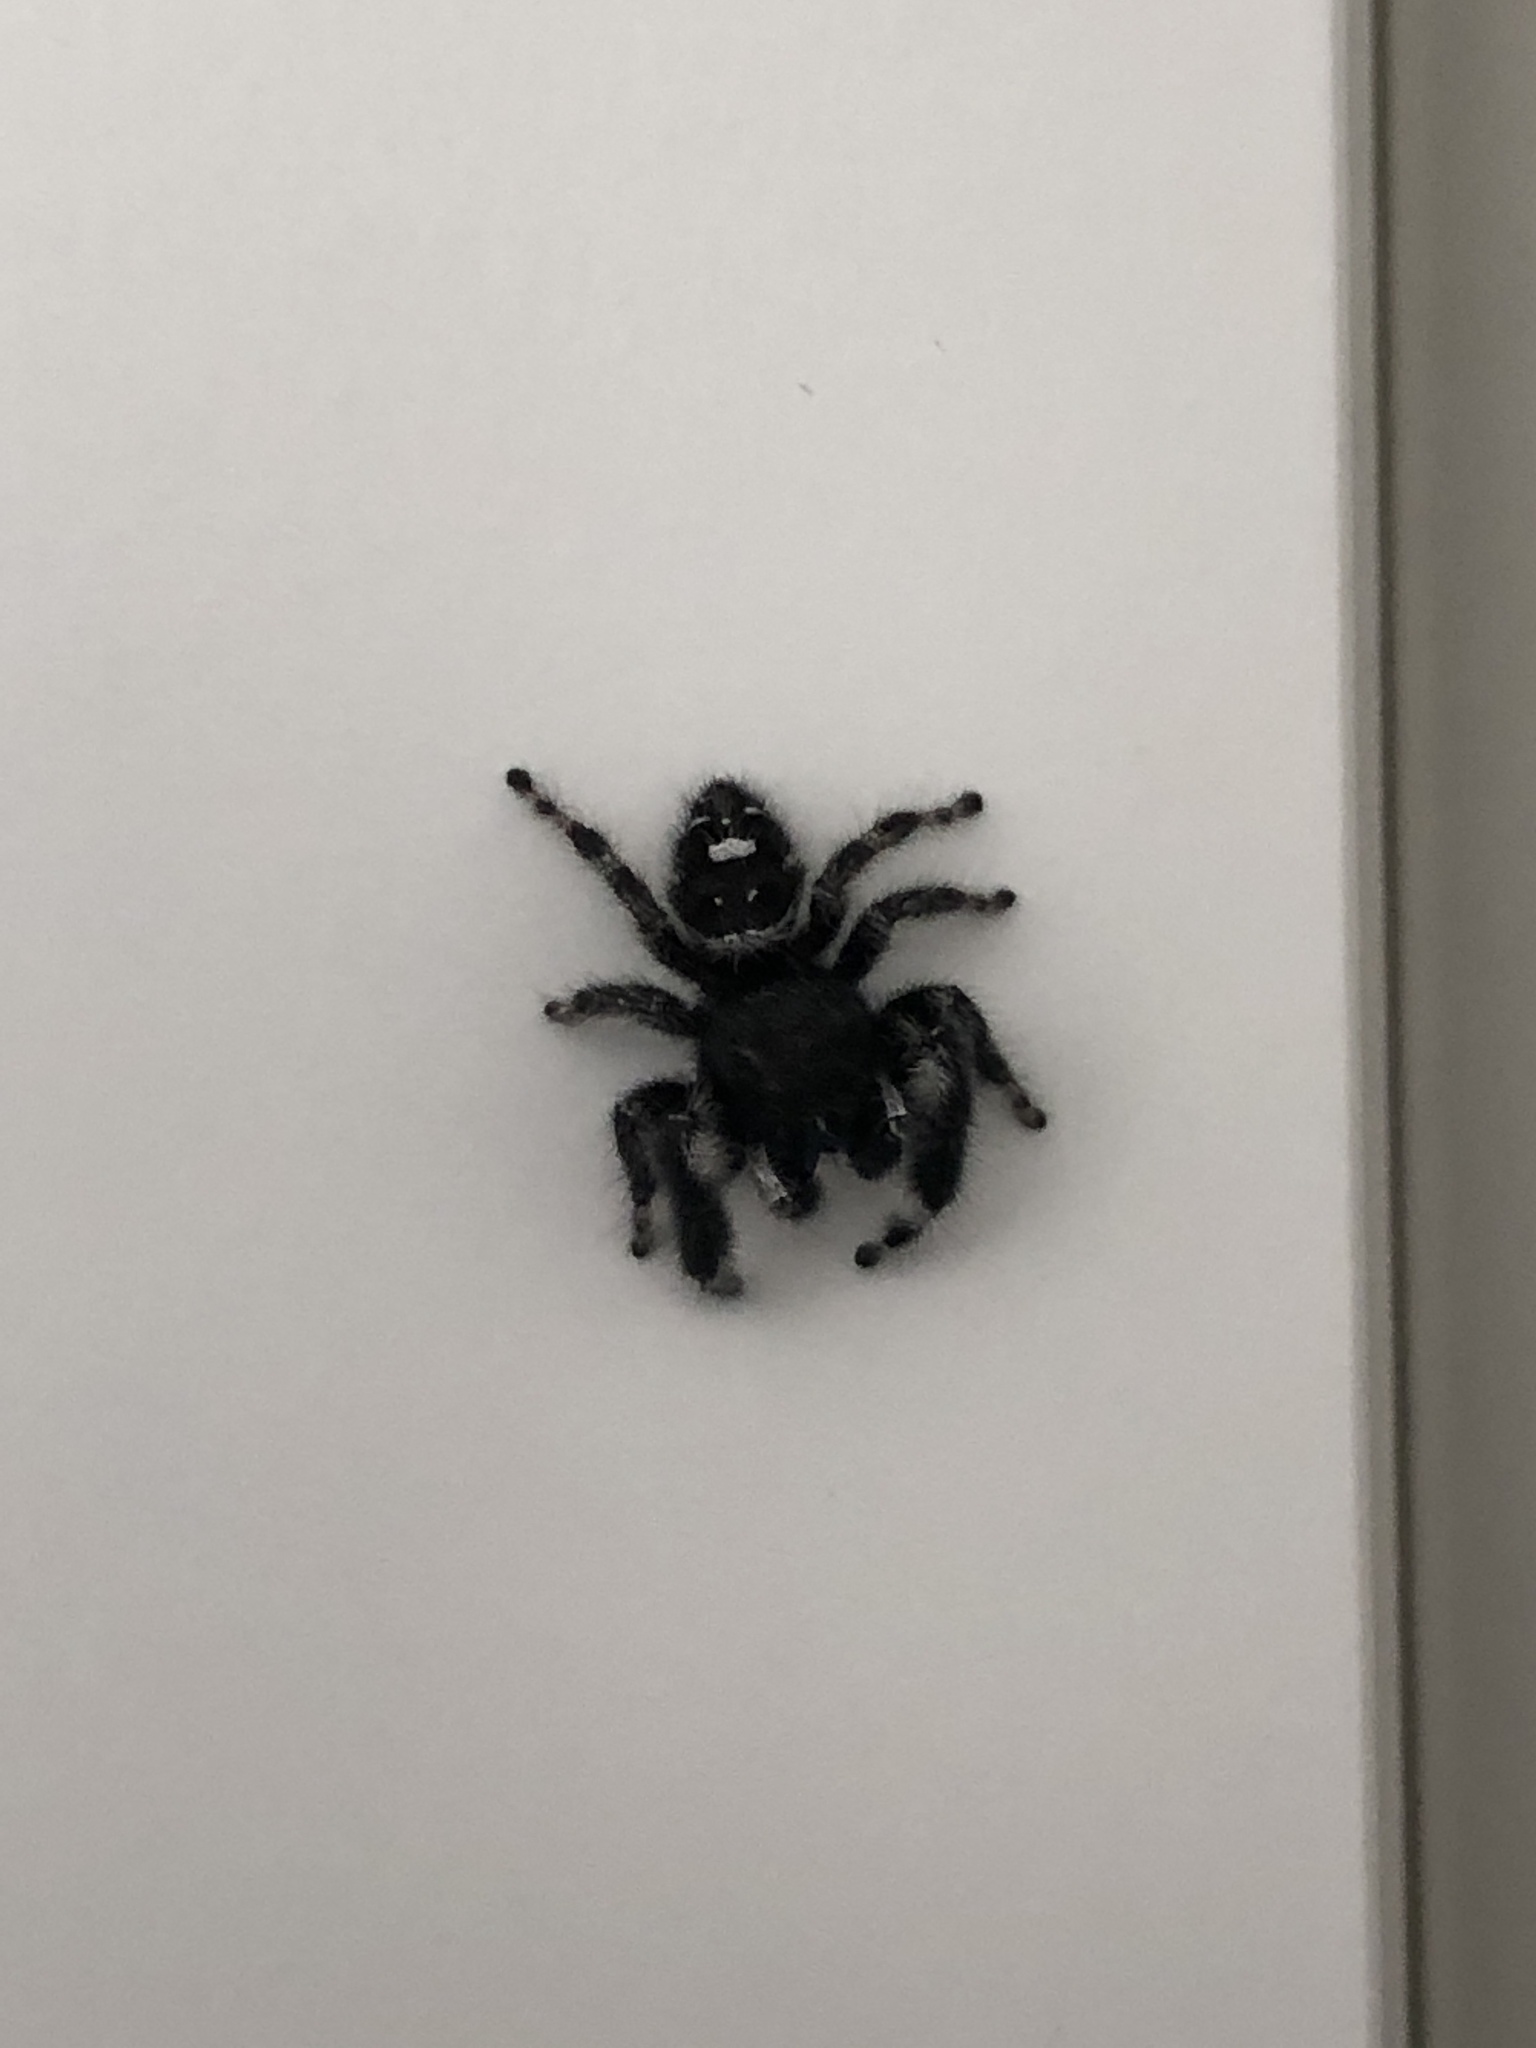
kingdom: Animalia
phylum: Arthropoda
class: Arachnida
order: Araneae
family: Salticidae
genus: Phidippus
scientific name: Phidippus audax
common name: Bold jumper
